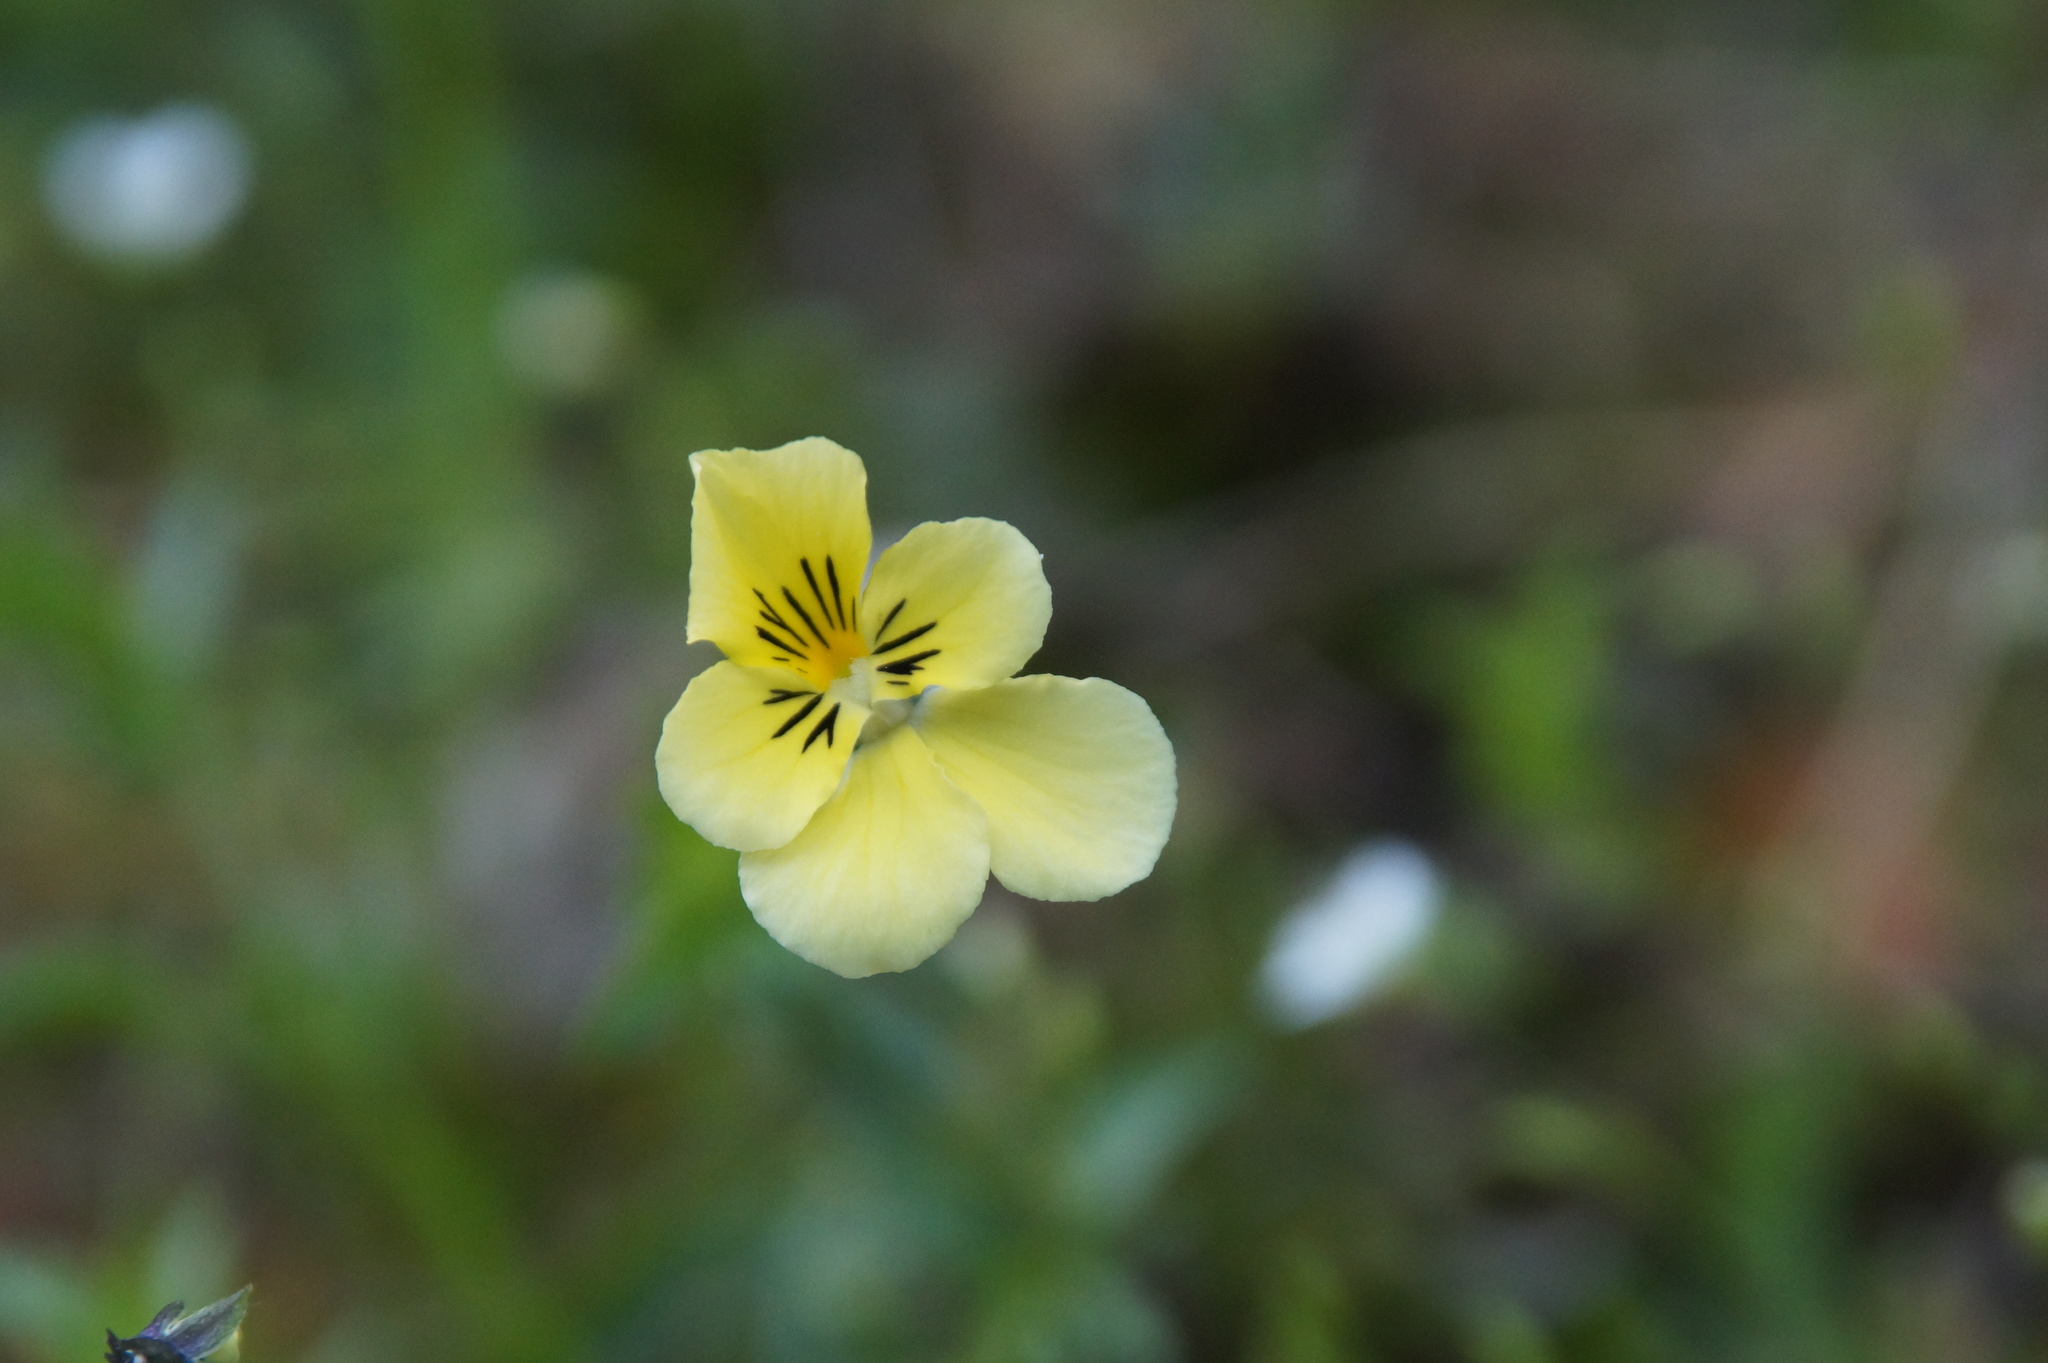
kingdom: Plantae
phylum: Tracheophyta
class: Magnoliopsida
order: Malpighiales
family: Violaceae
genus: Viola
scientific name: Viola lutea
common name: Mountain pansy
